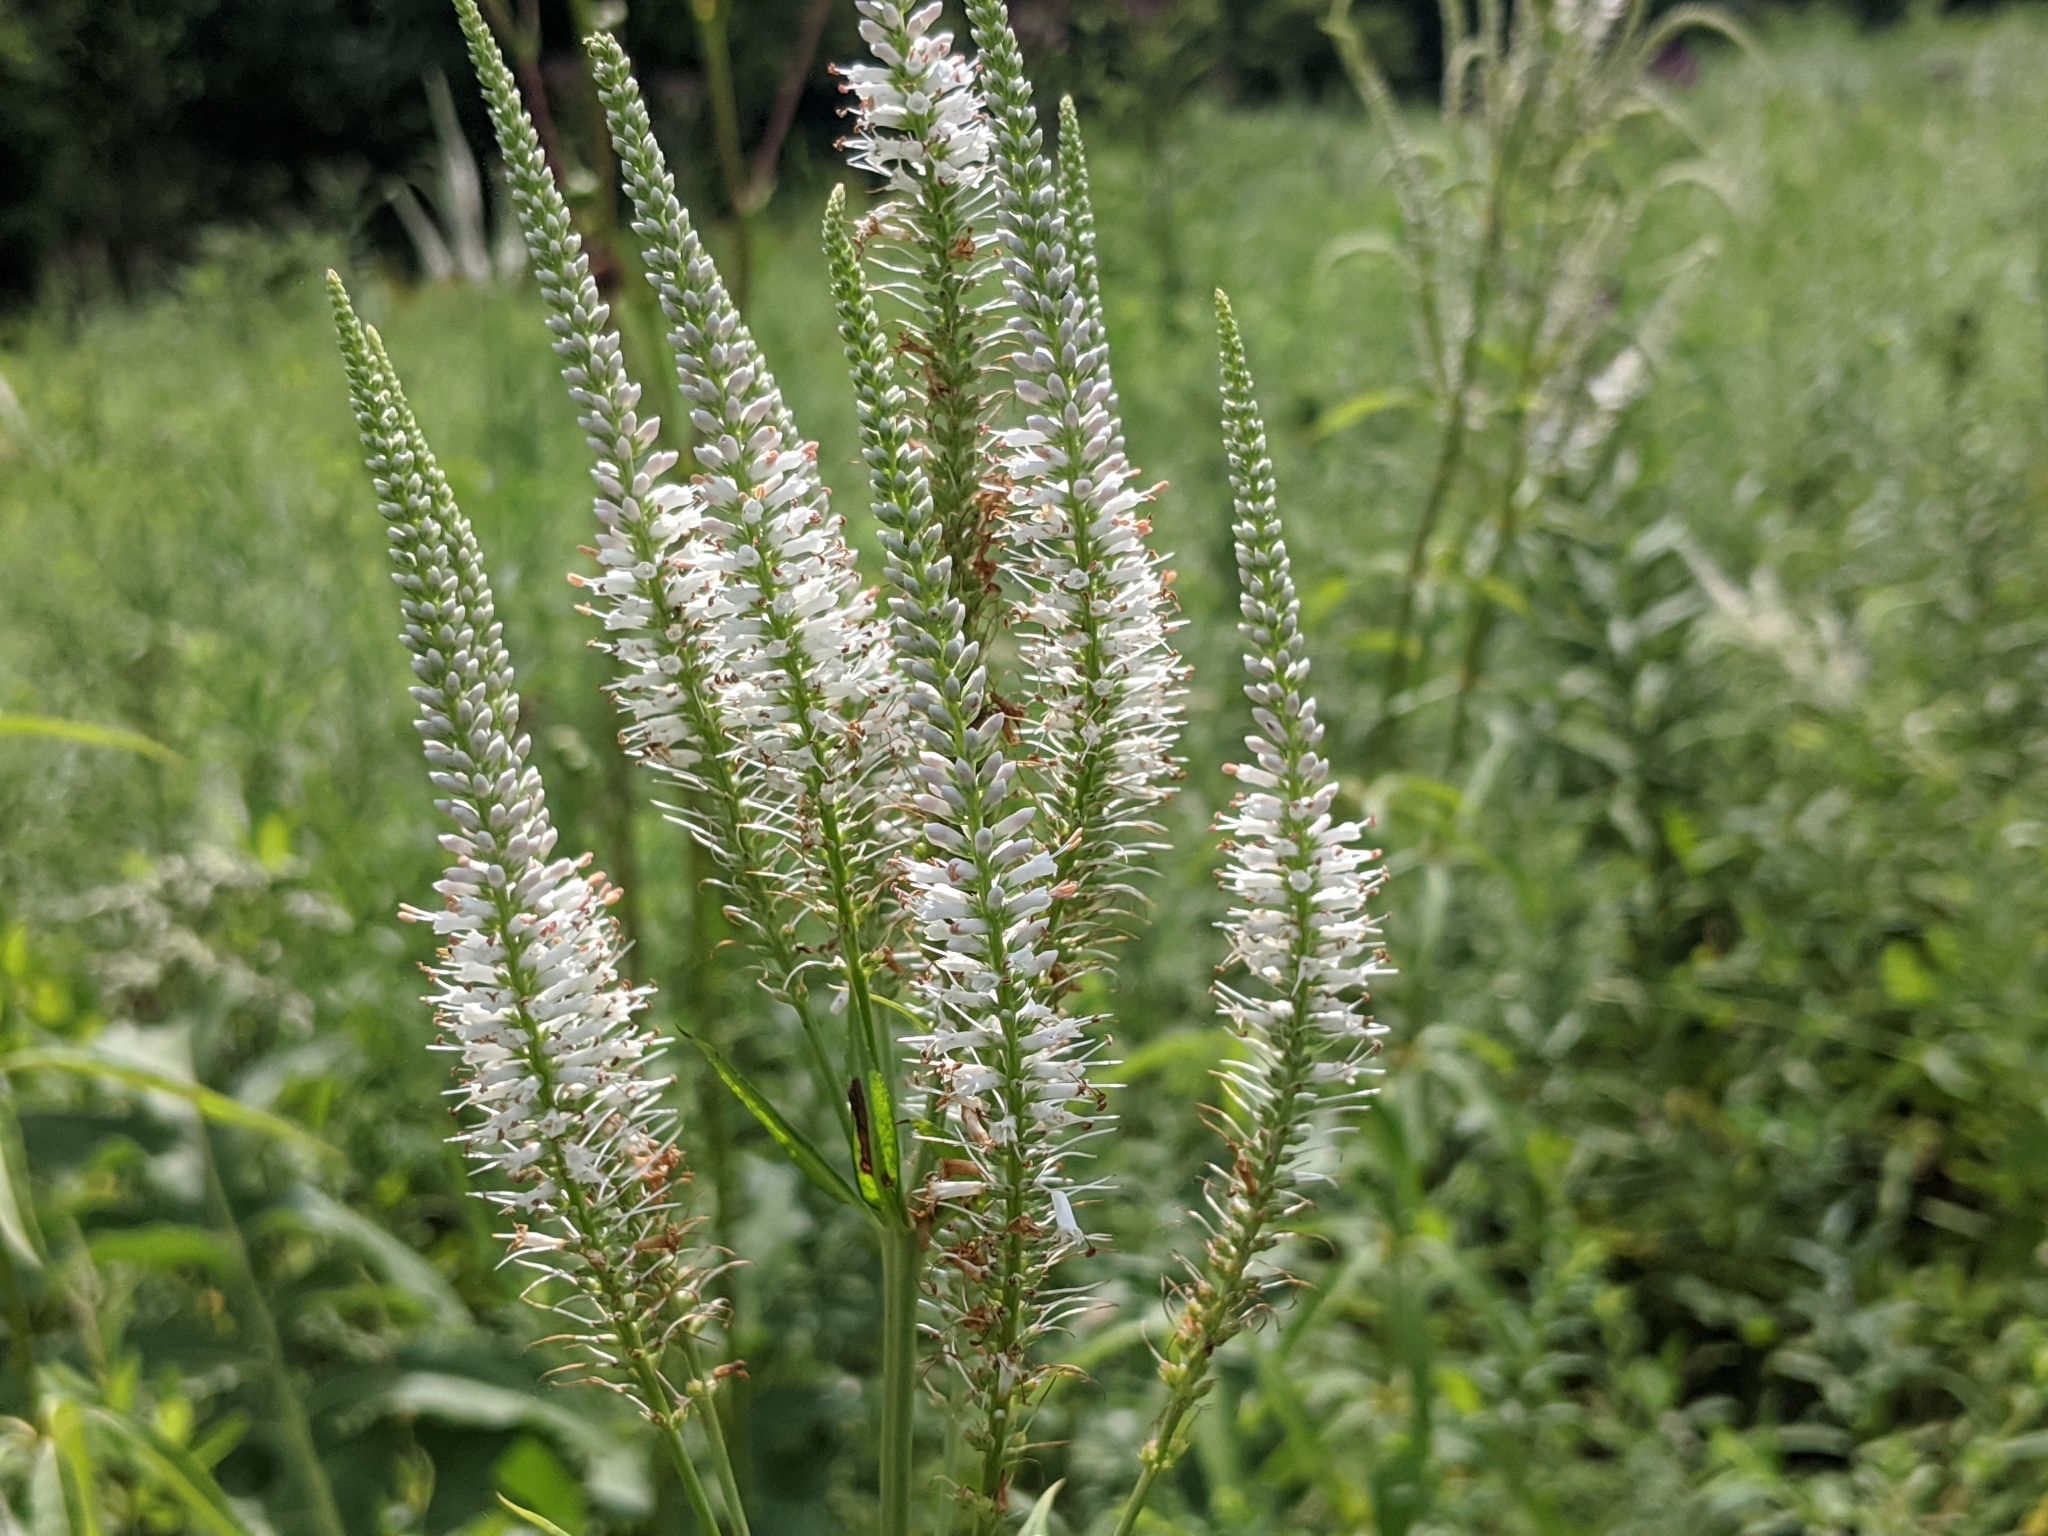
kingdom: Plantae
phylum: Tracheophyta
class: Magnoliopsida
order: Lamiales
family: Plantaginaceae
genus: Veronicastrum
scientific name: Veronicastrum virginicum
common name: Blackroot
